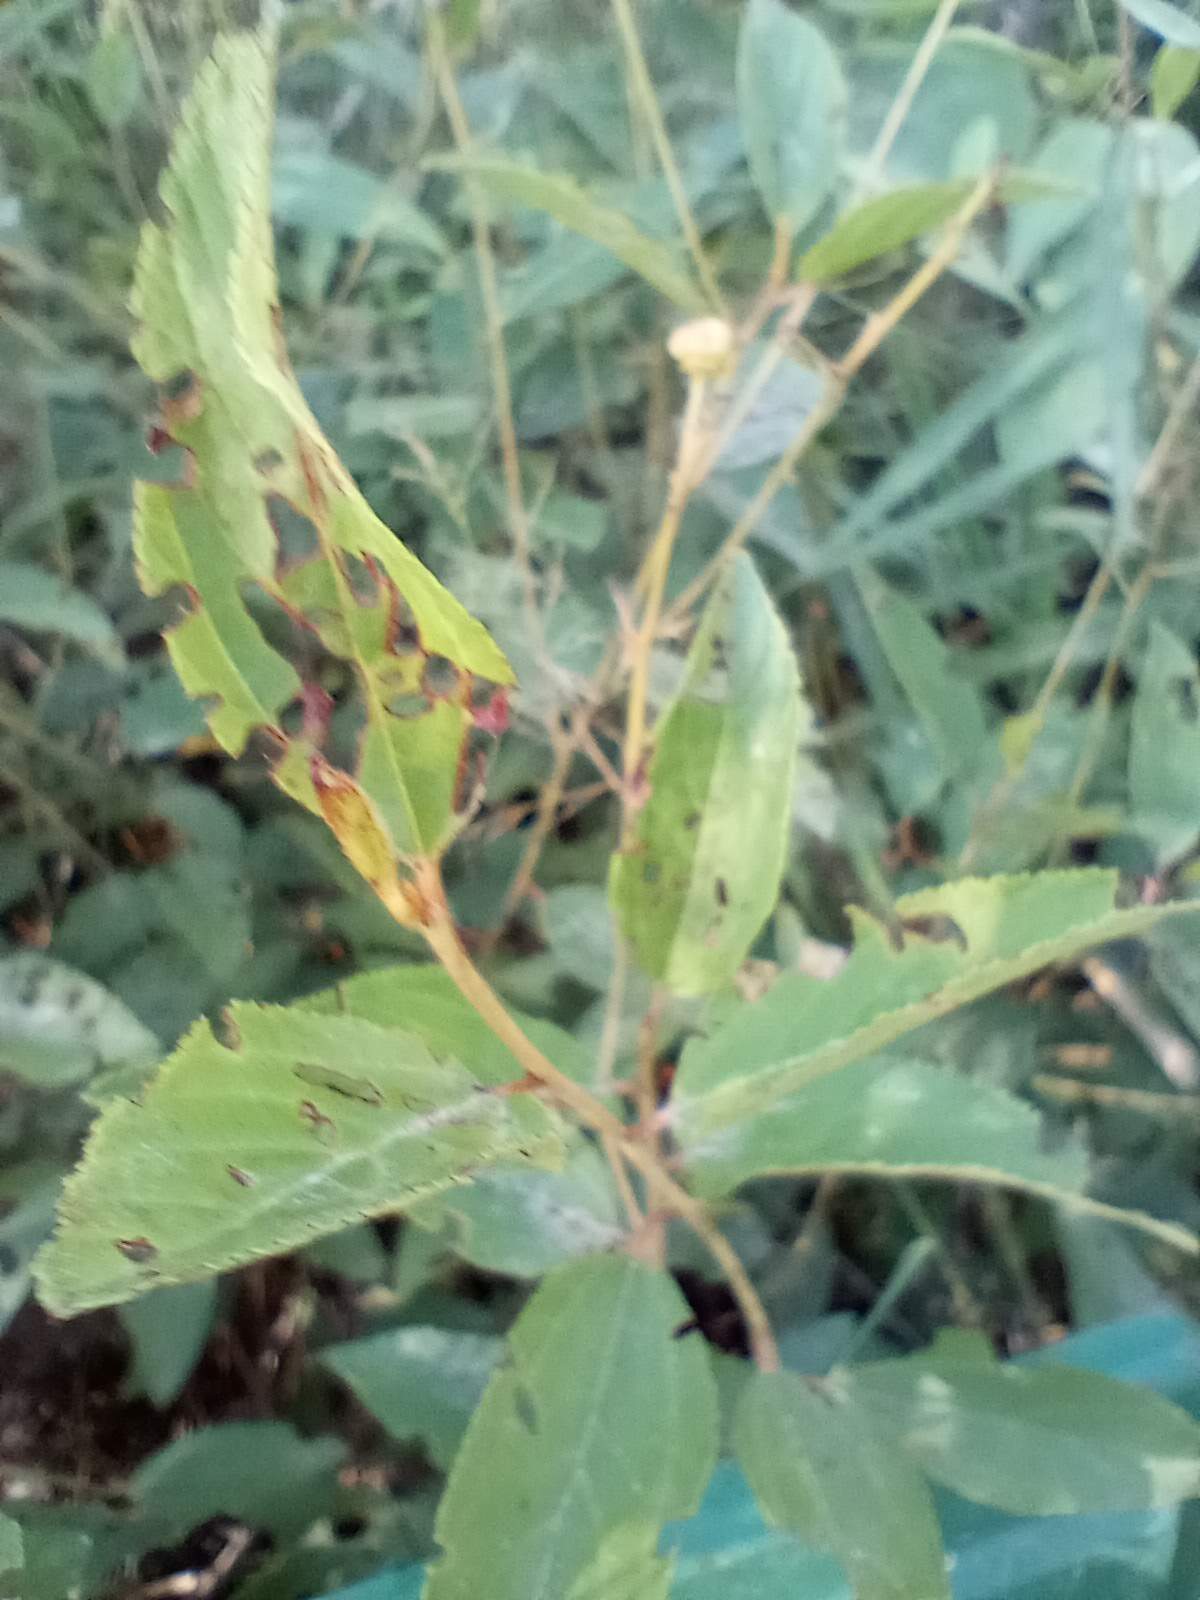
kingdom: Plantae
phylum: Tracheophyta
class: Magnoliopsida
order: Rosales
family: Rhamnaceae
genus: Ceanothus
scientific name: Ceanothus americanus
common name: Redroot
